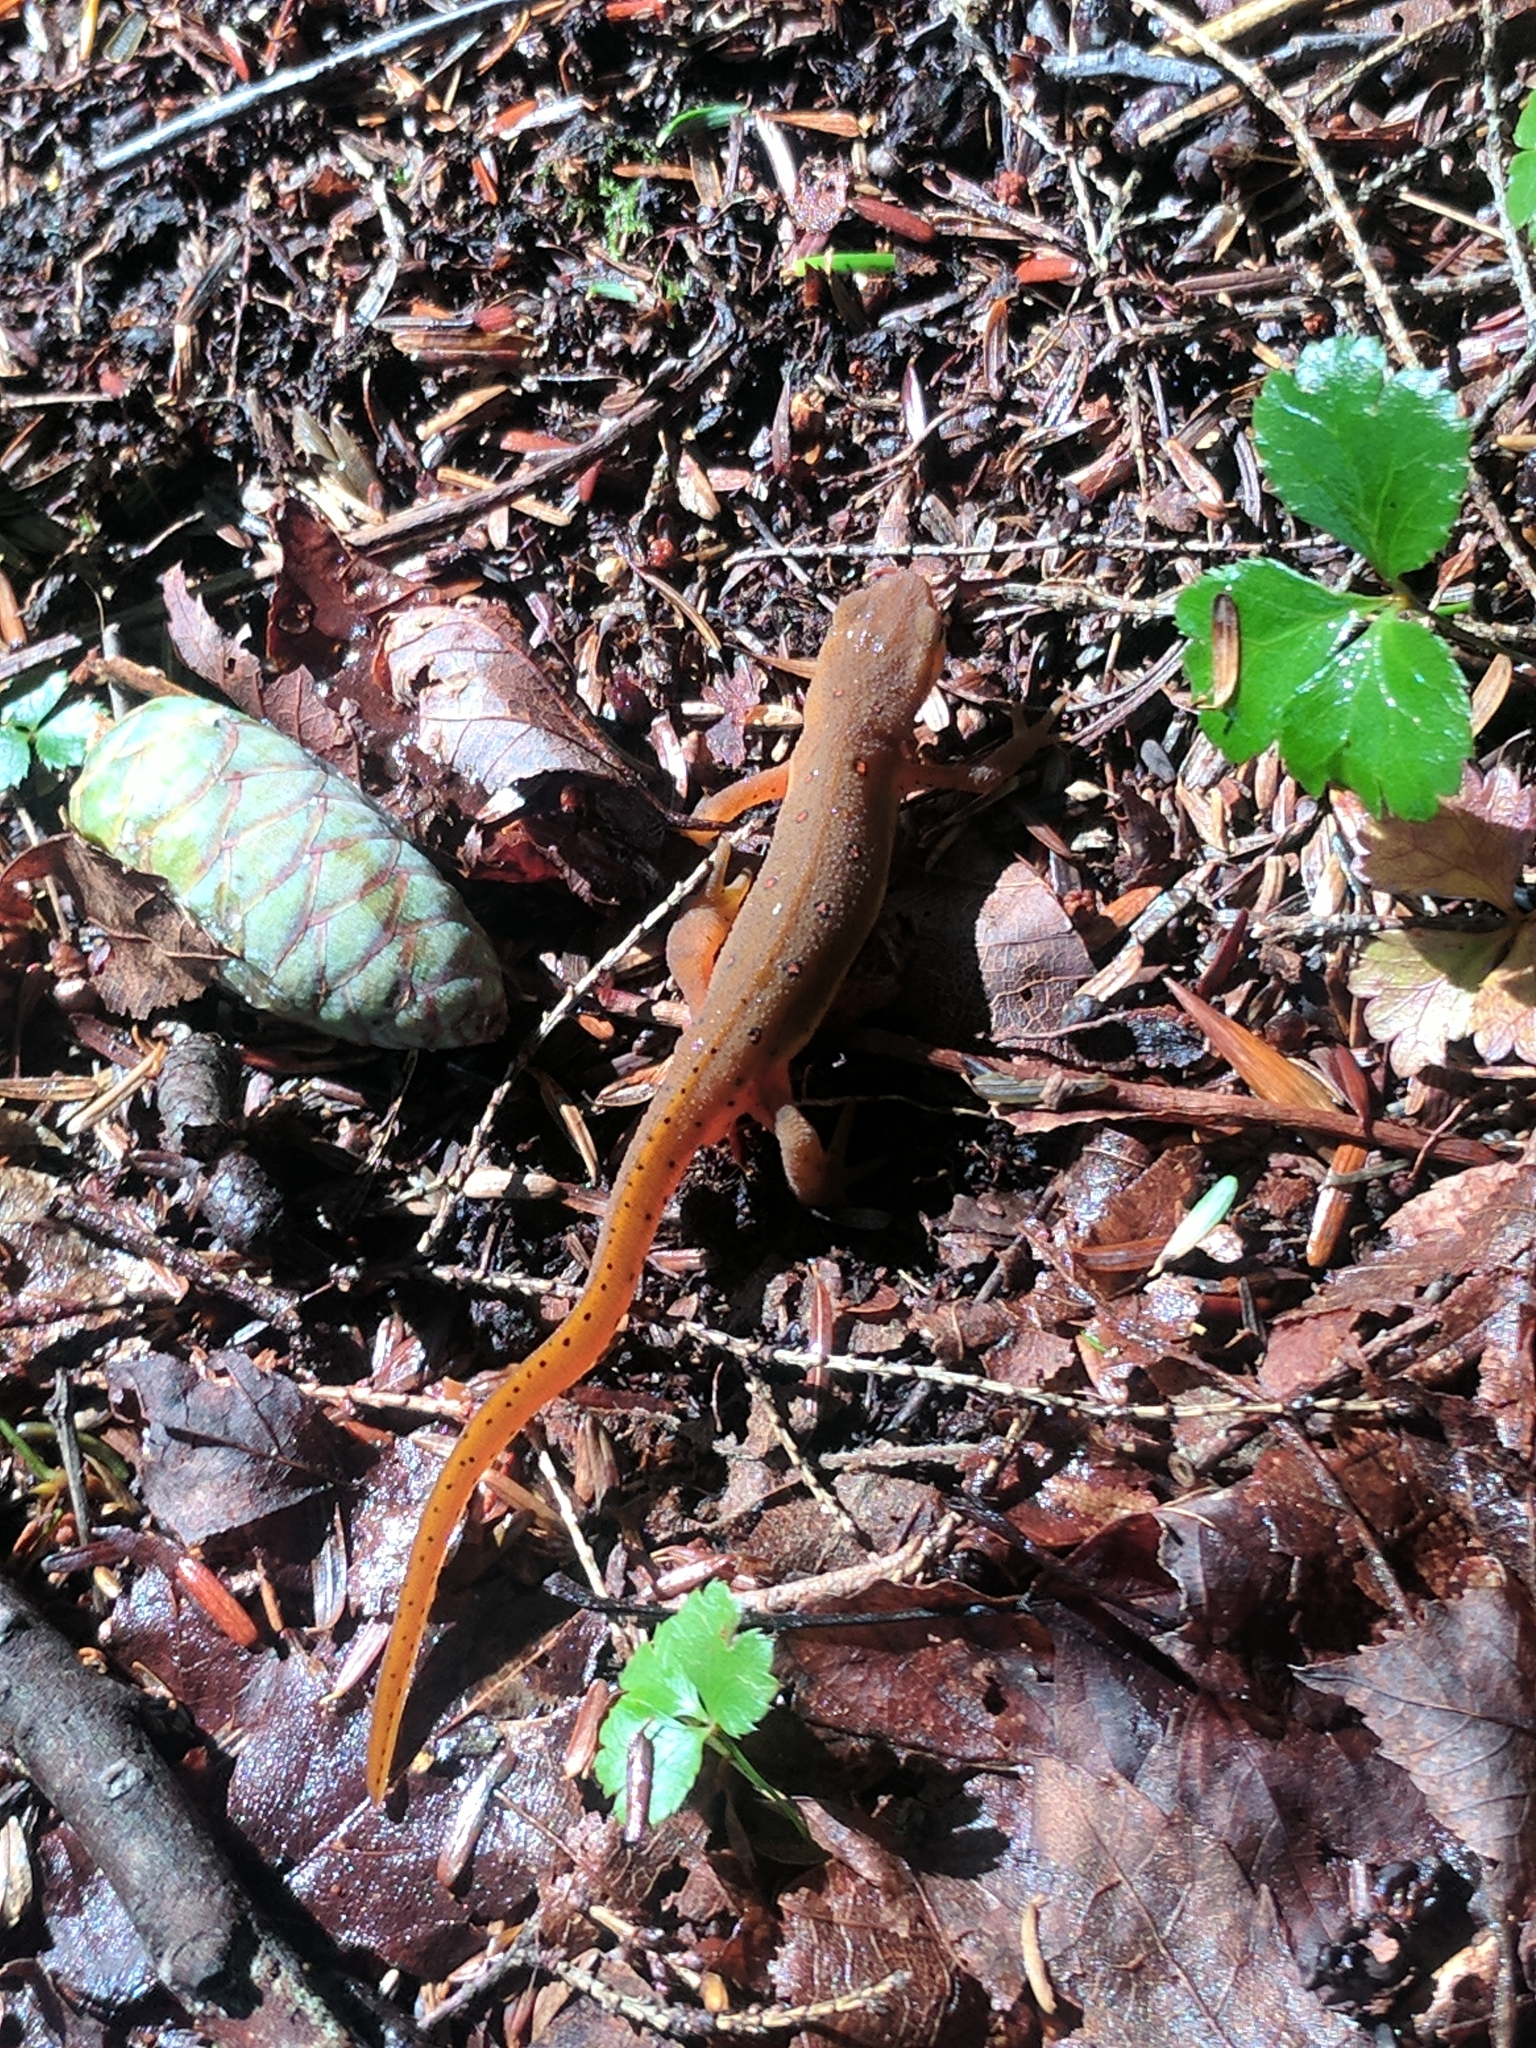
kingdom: Animalia
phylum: Chordata
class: Amphibia
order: Caudata
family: Salamandridae
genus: Notophthalmus
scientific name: Notophthalmus viridescens
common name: Eastern newt
